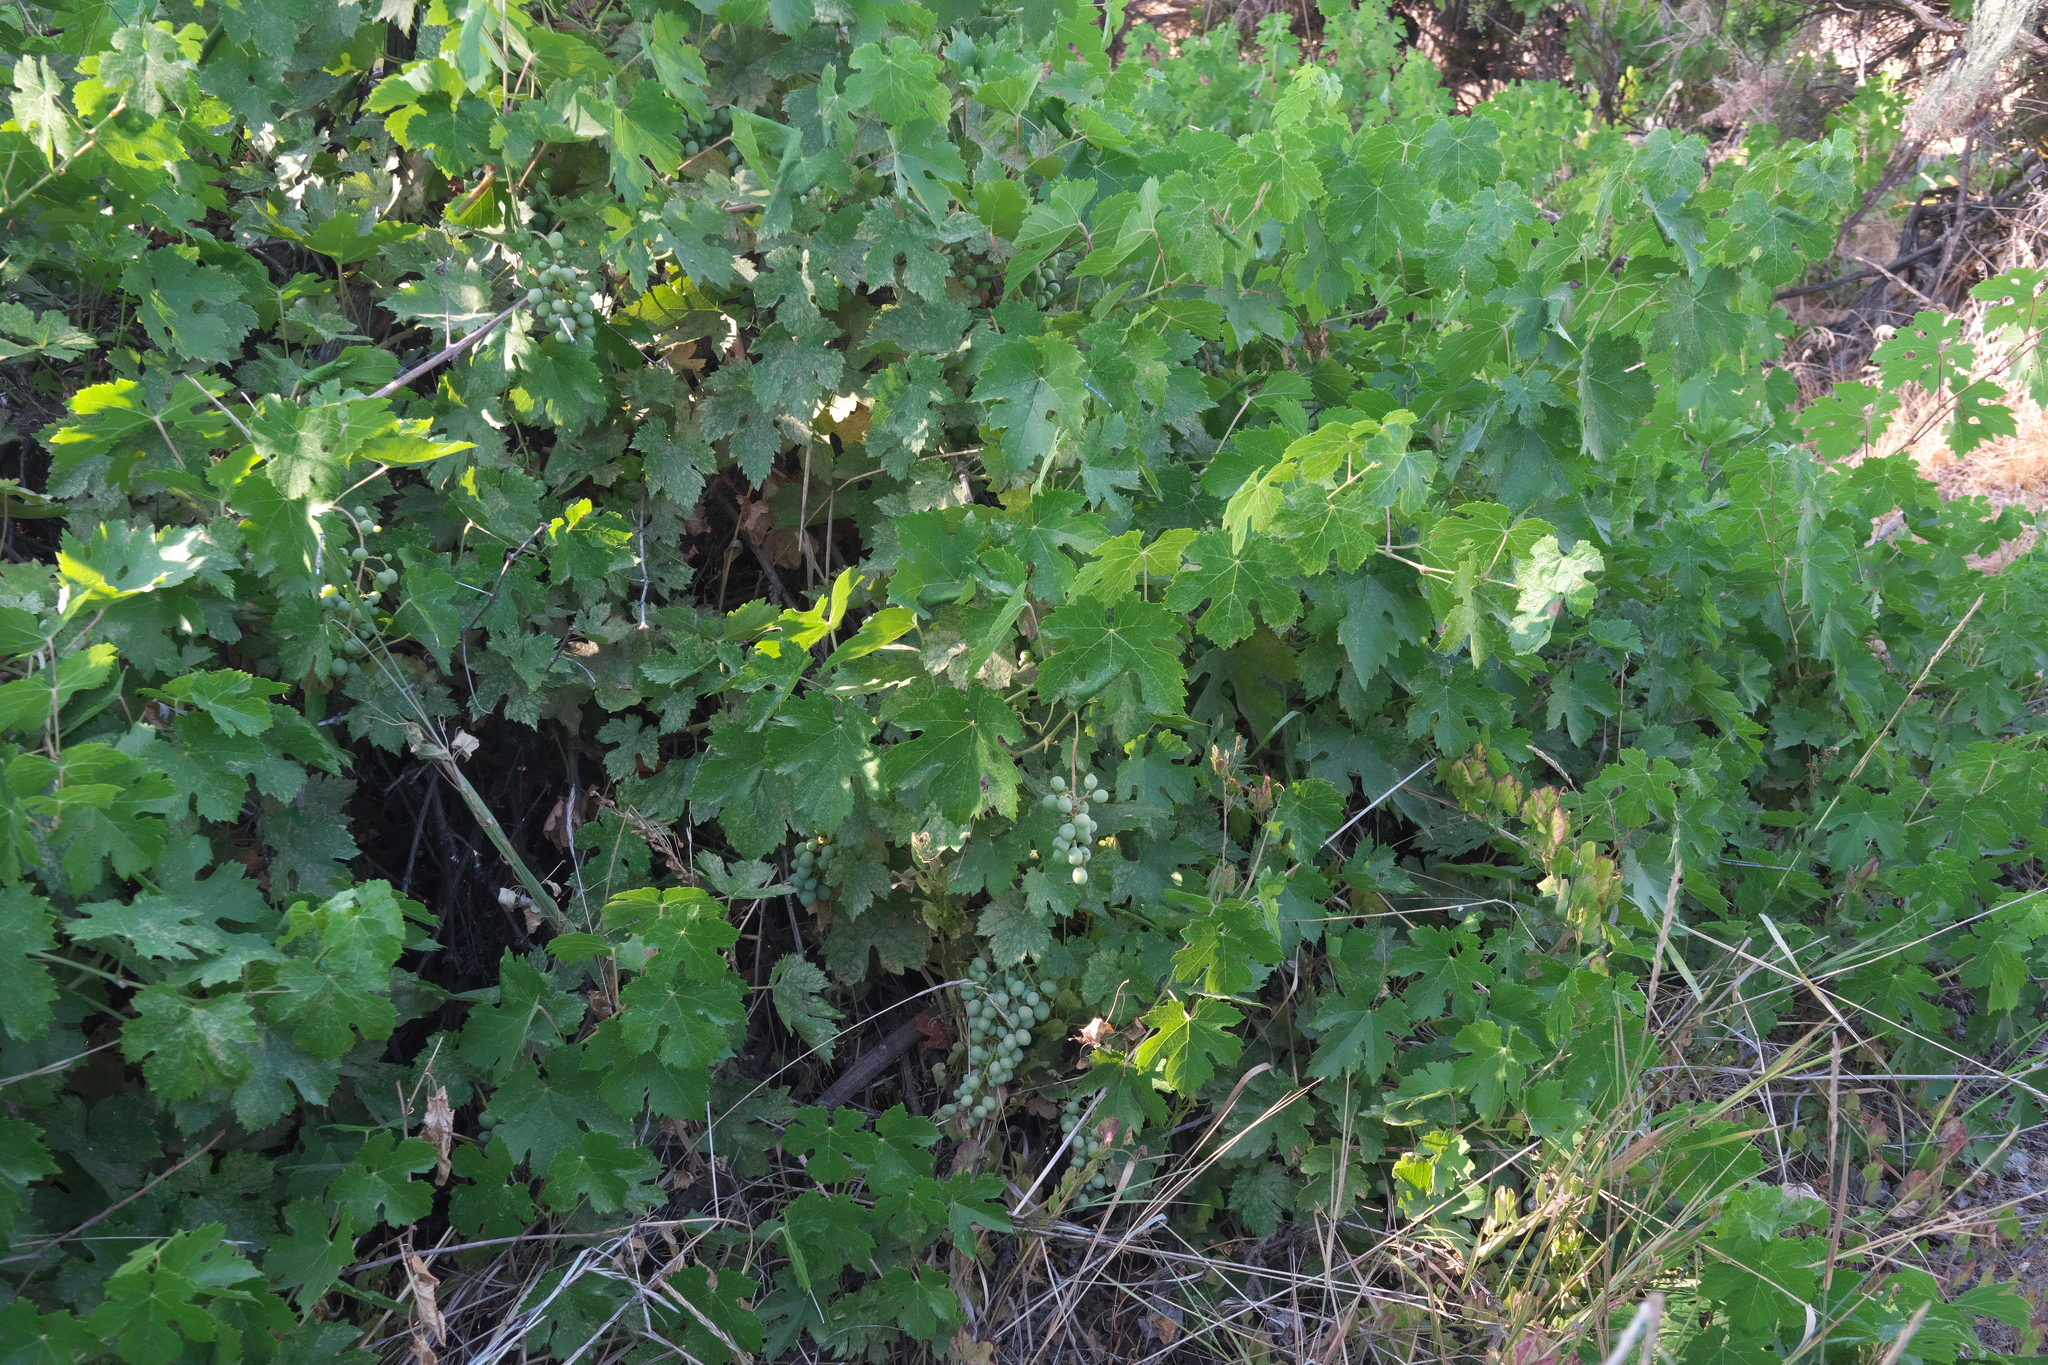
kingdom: Plantae
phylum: Tracheophyta
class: Magnoliopsida
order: Vitales
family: Vitaceae
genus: Vitis
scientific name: Vitis vinifera
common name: Grape-vine
